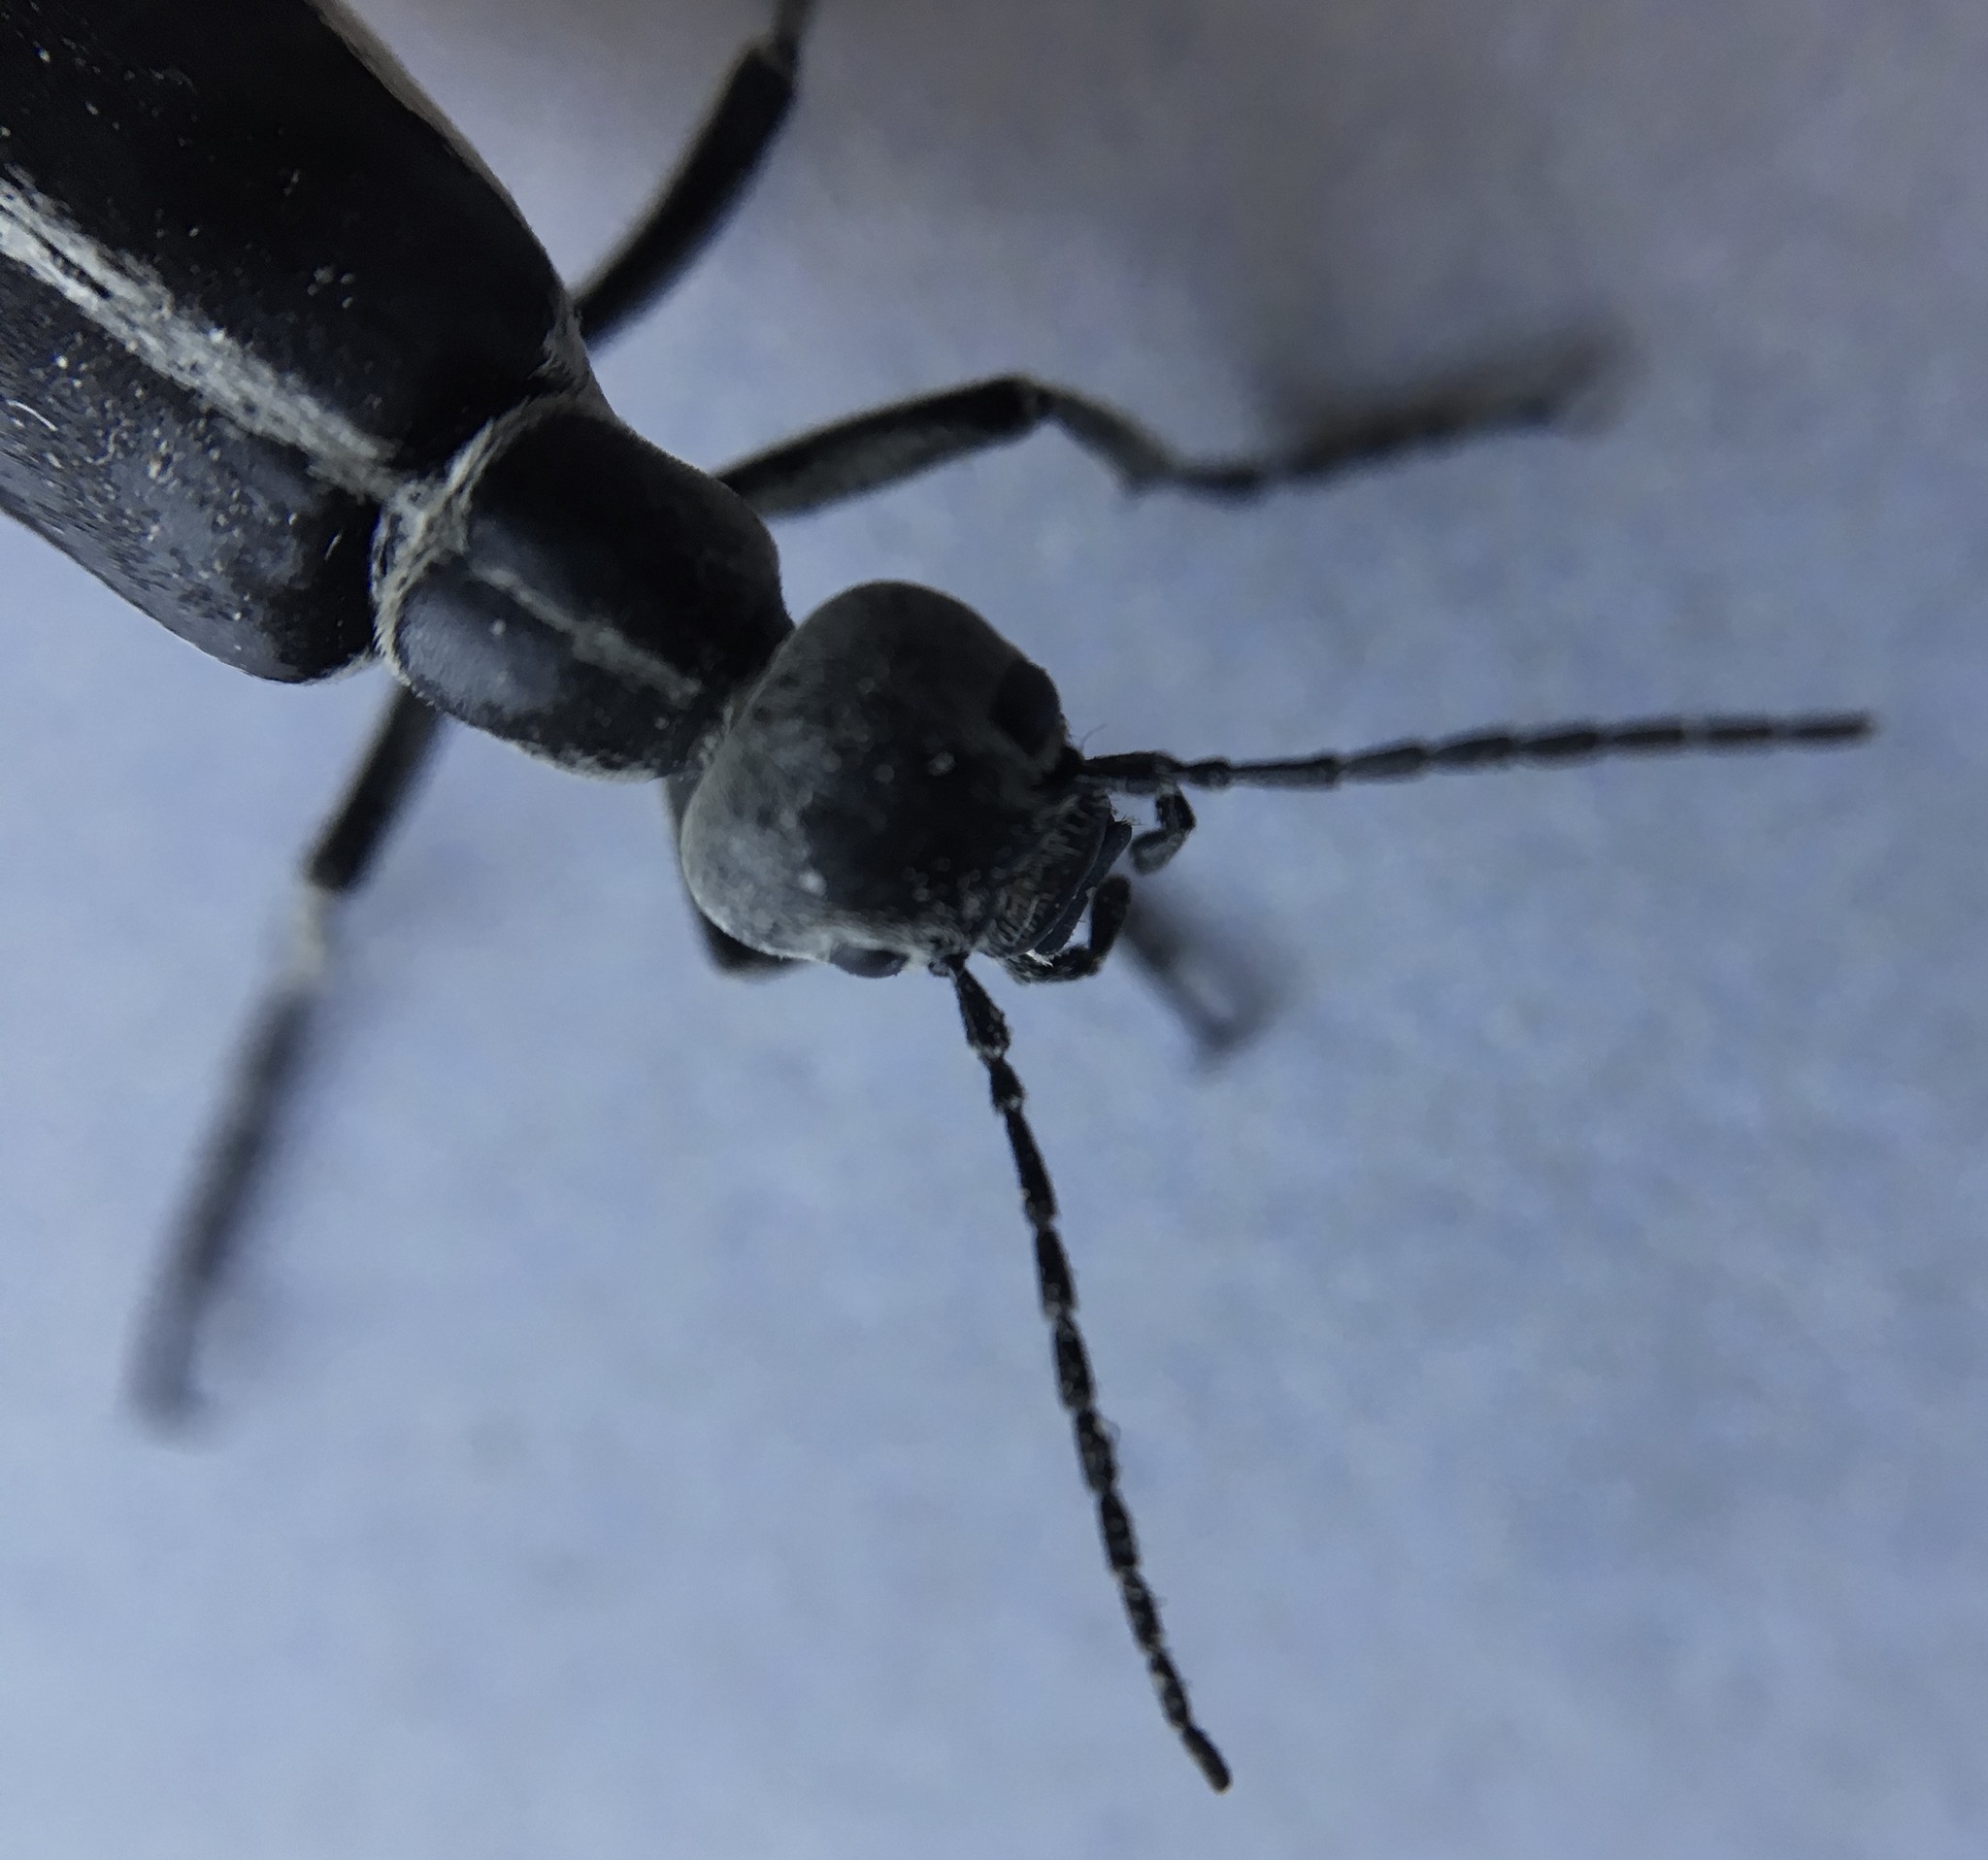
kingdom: Animalia
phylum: Arthropoda
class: Insecta
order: Coleoptera
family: Meloidae
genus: Epicauta
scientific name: Epicauta funebris
